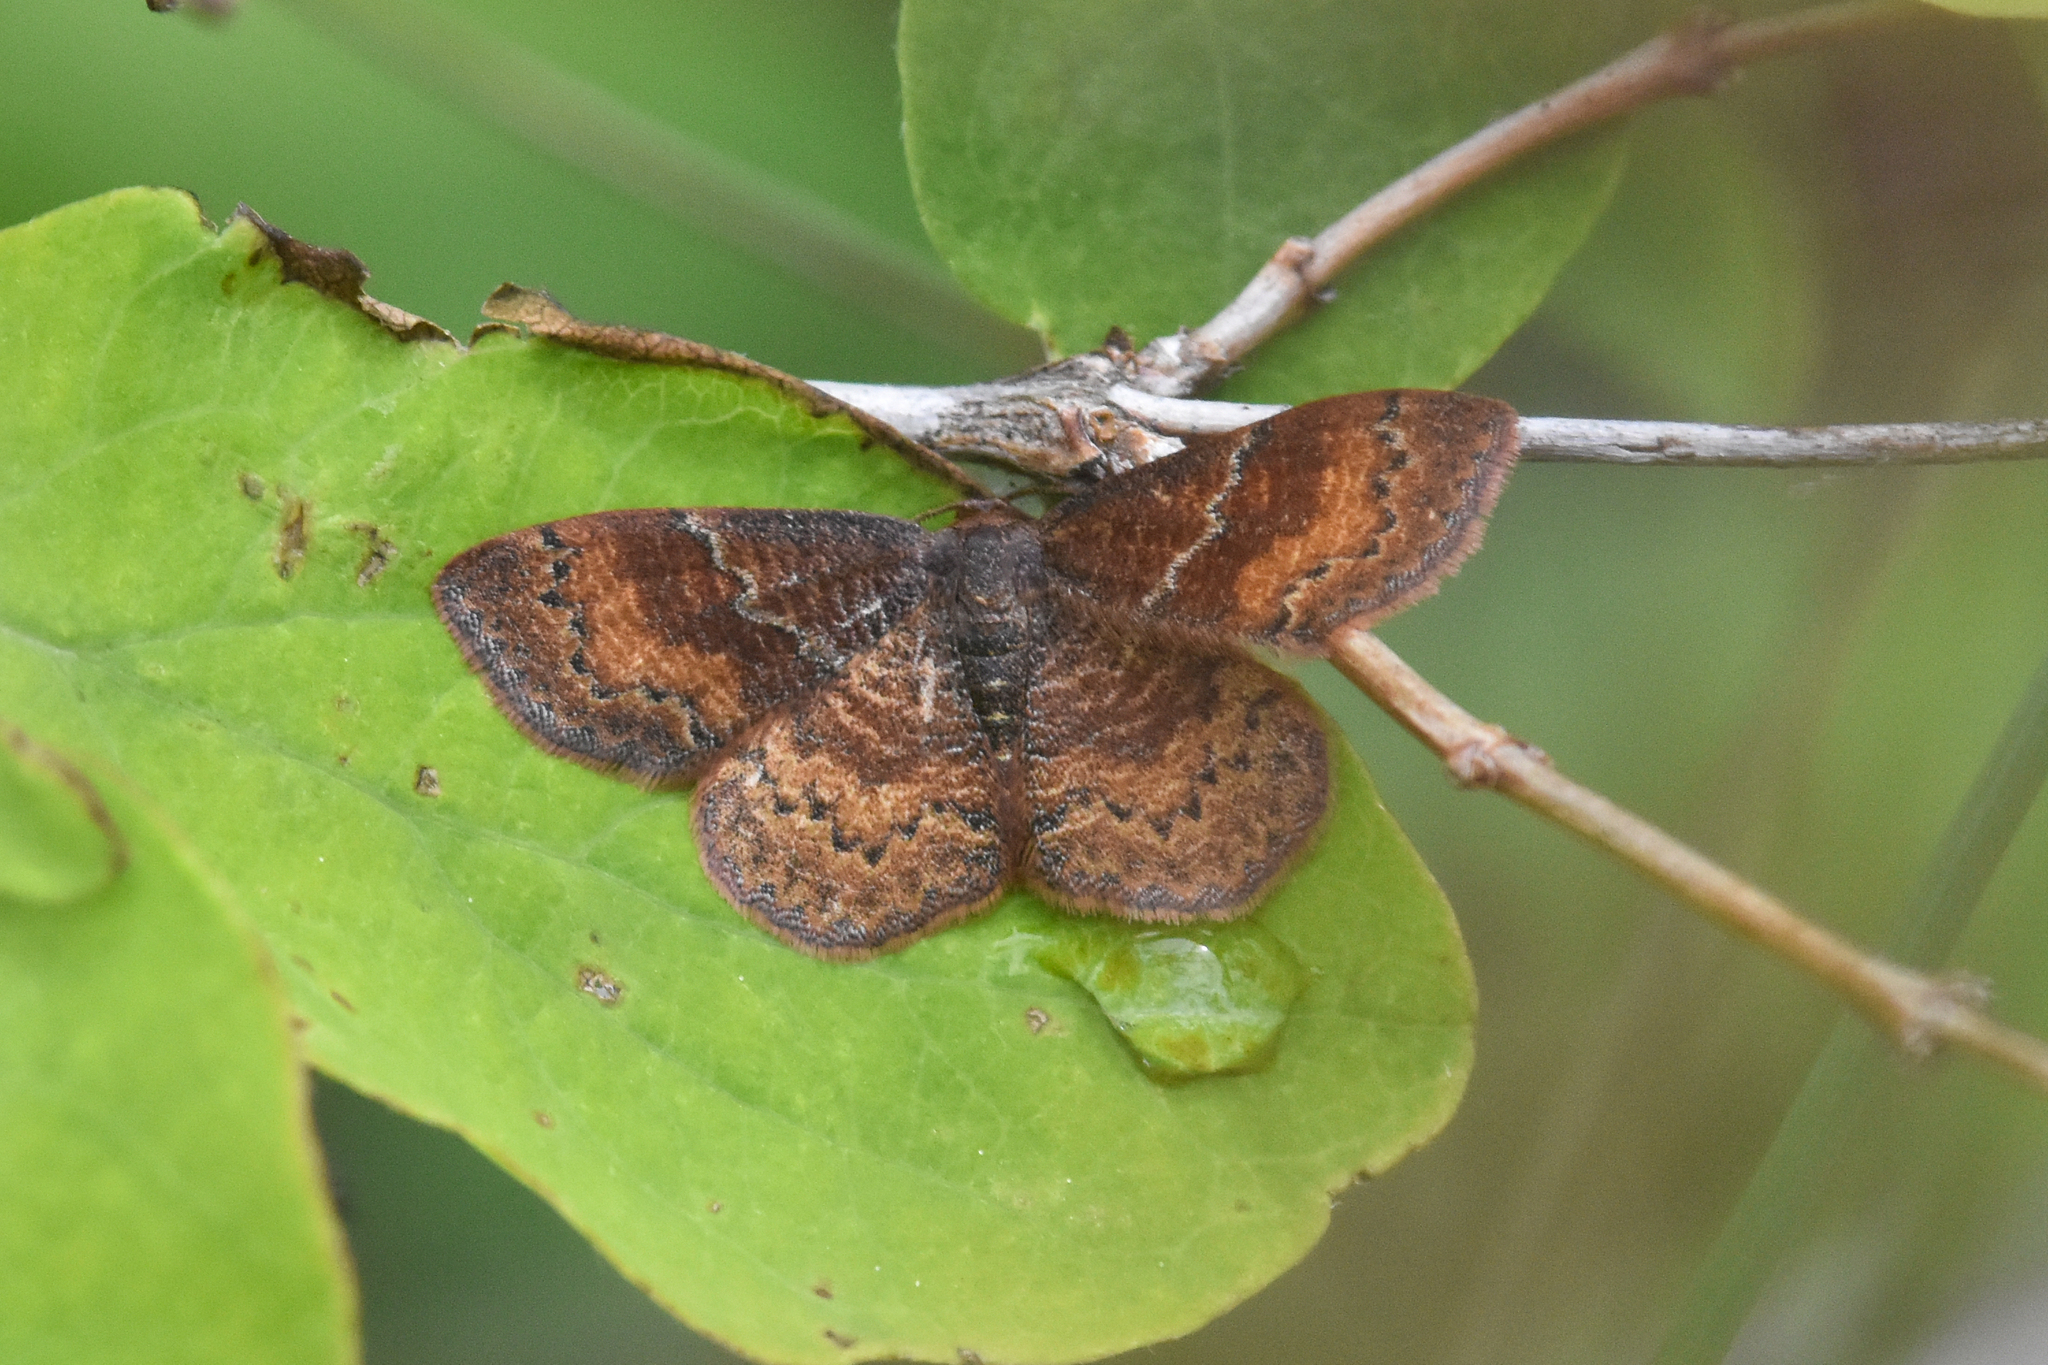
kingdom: Animalia
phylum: Arthropoda
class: Insecta
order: Lepidoptera
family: Geometridae
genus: Leptostales
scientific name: Leptostales rubromarginaria
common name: Dark-ribboned wave
